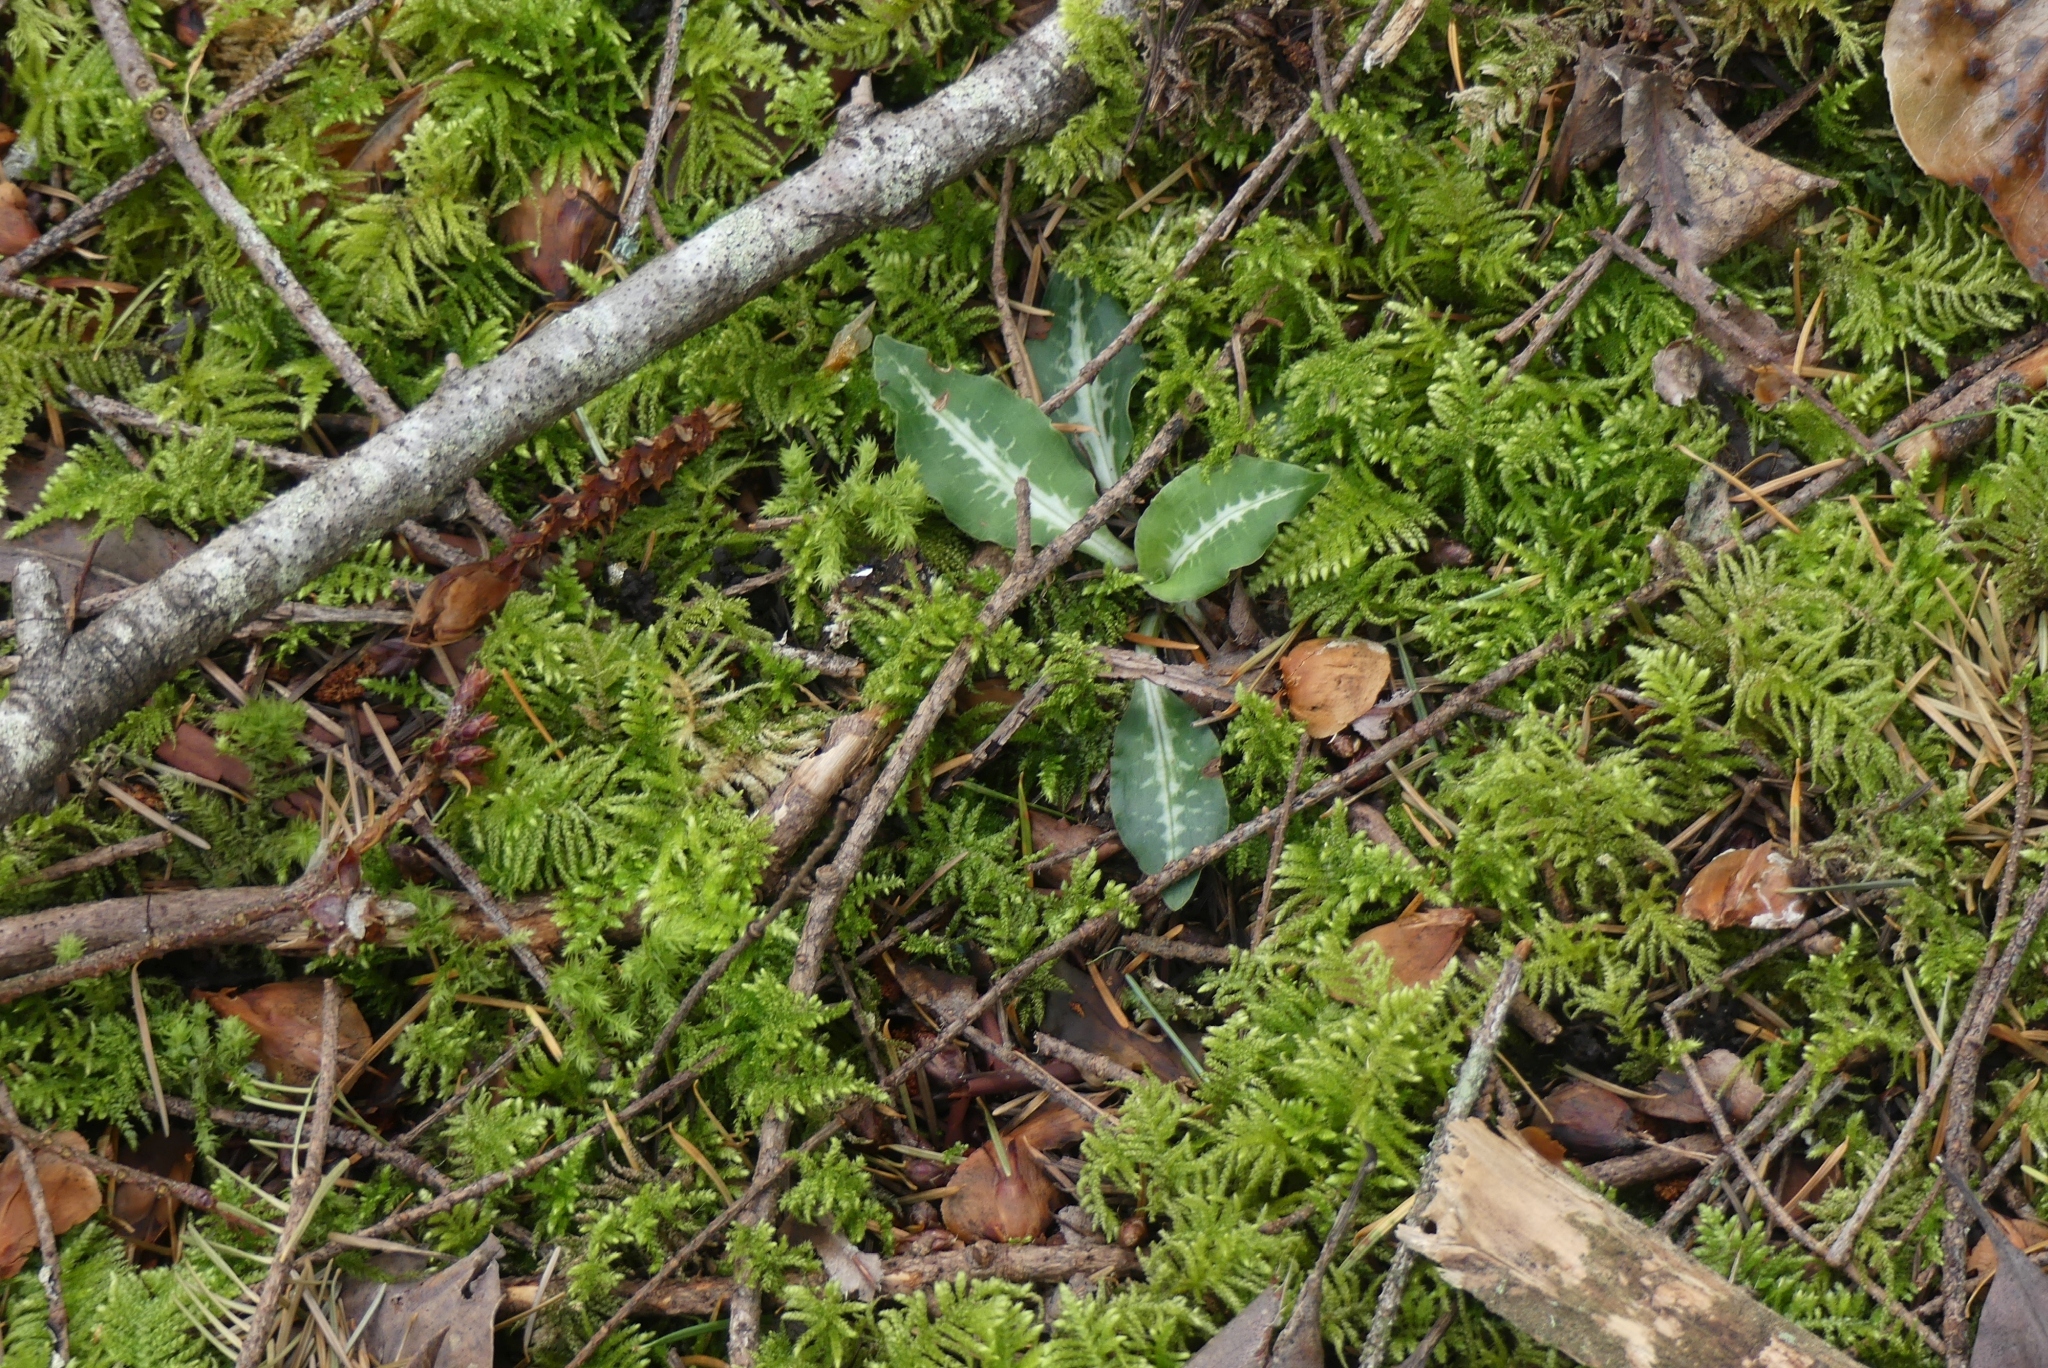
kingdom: Plantae
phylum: Tracheophyta
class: Liliopsida
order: Asparagales
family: Orchidaceae
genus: Goodyera
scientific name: Goodyera oblongifolia
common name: Giant rattlesnake-plantain
